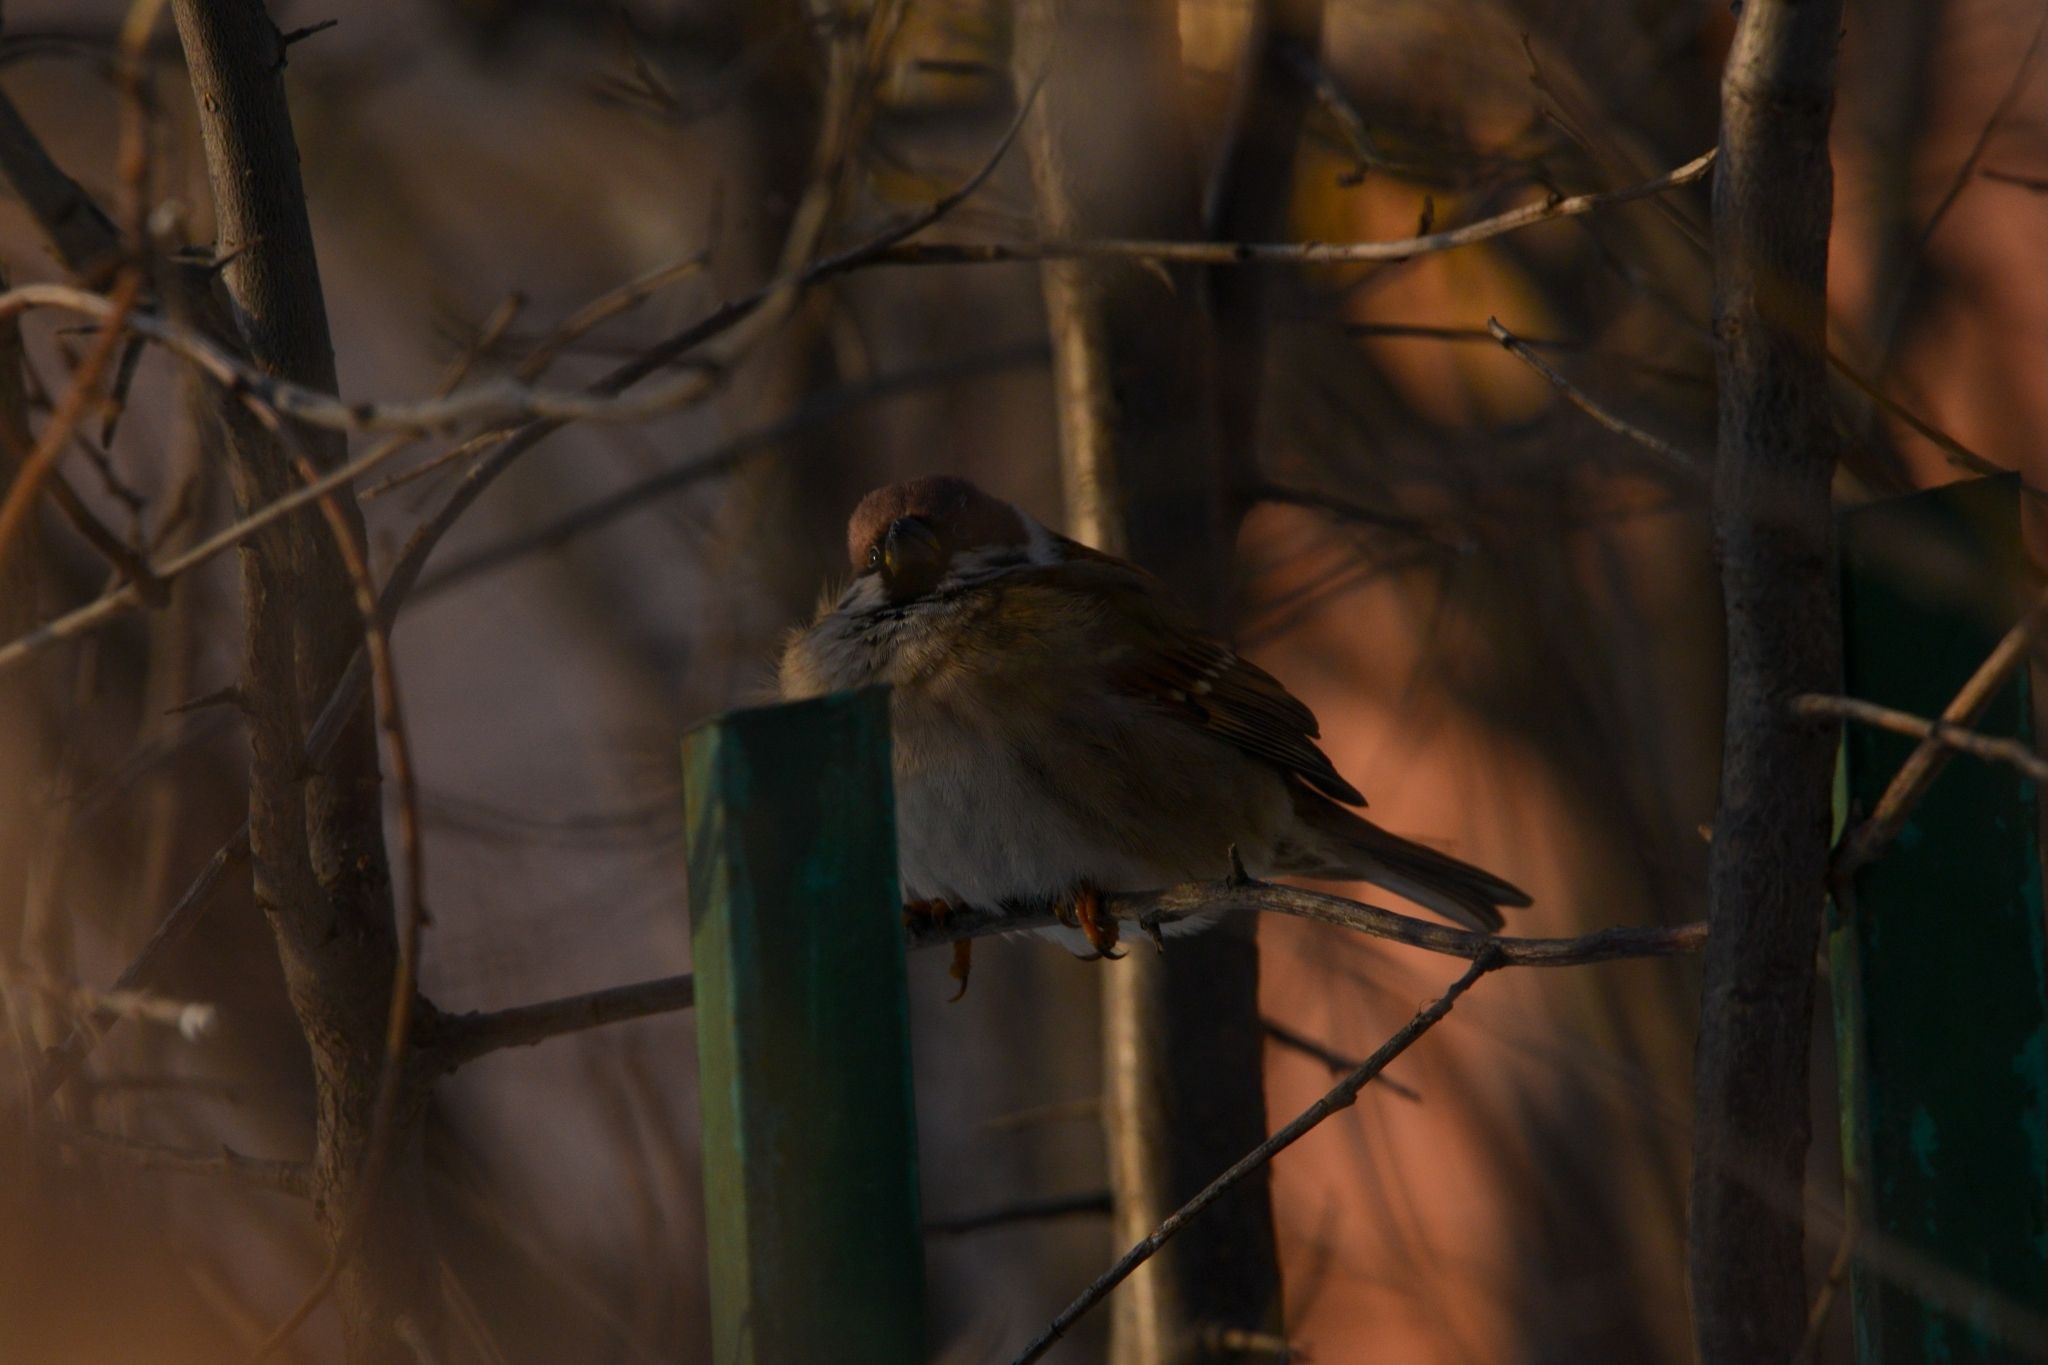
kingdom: Animalia
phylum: Chordata
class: Aves
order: Passeriformes
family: Passeridae
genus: Passer
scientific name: Passer montanus
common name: Eurasian tree sparrow
